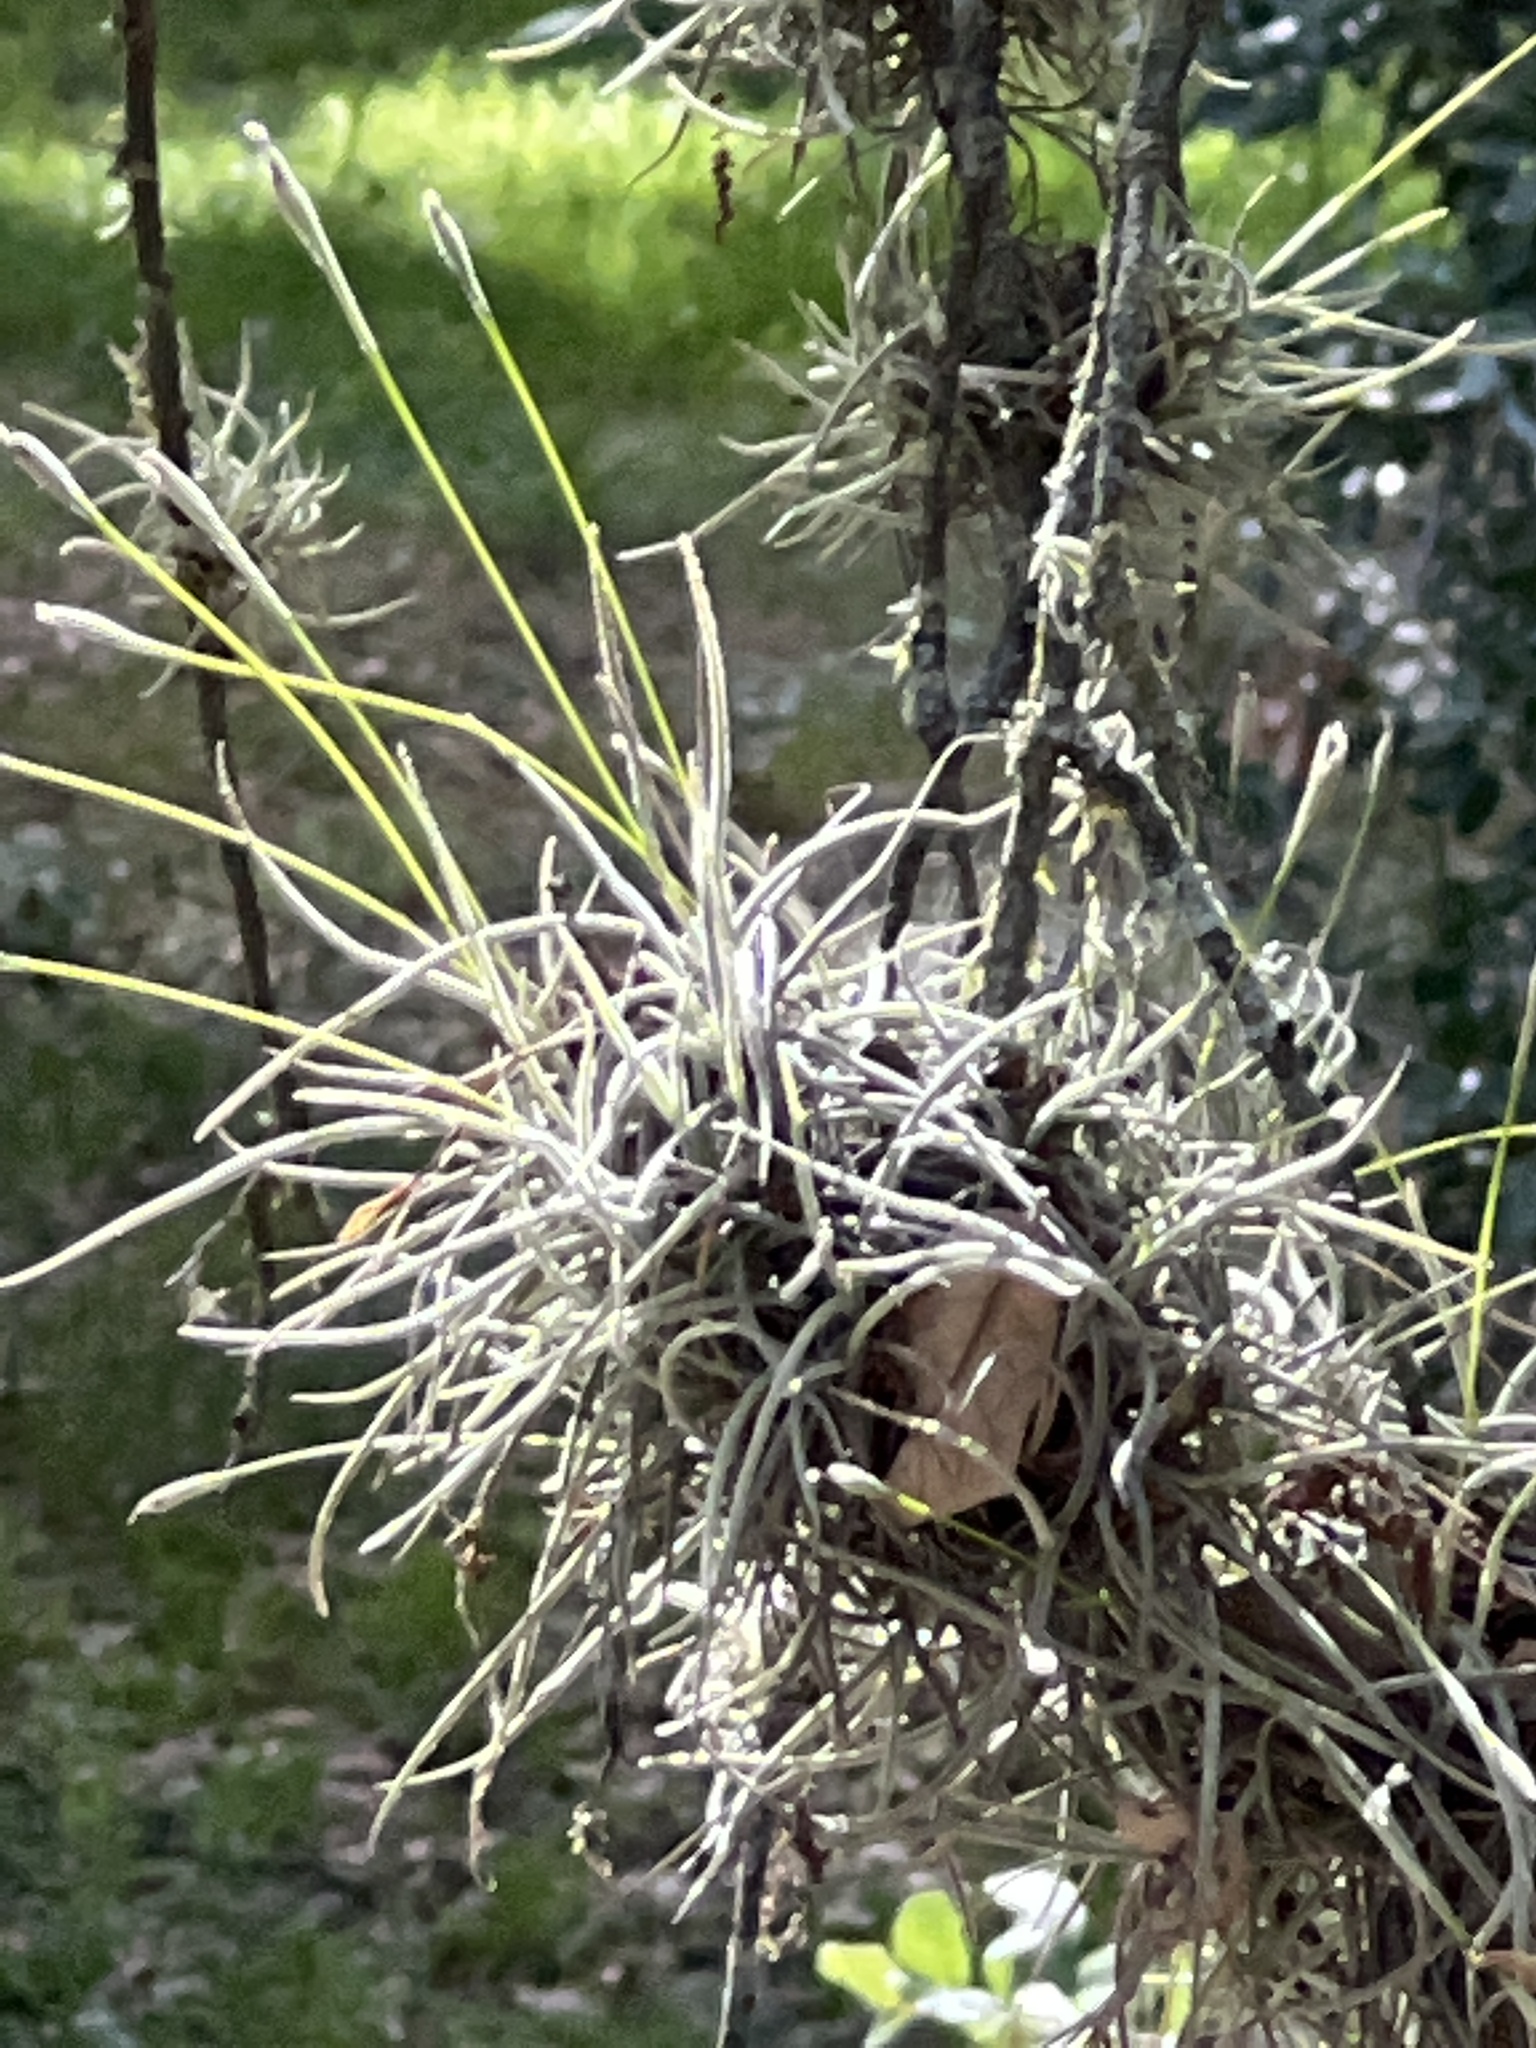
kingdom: Plantae
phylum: Tracheophyta
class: Liliopsida
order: Poales
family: Bromeliaceae
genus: Tillandsia
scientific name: Tillandsia recurvata
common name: Small ballmoss
